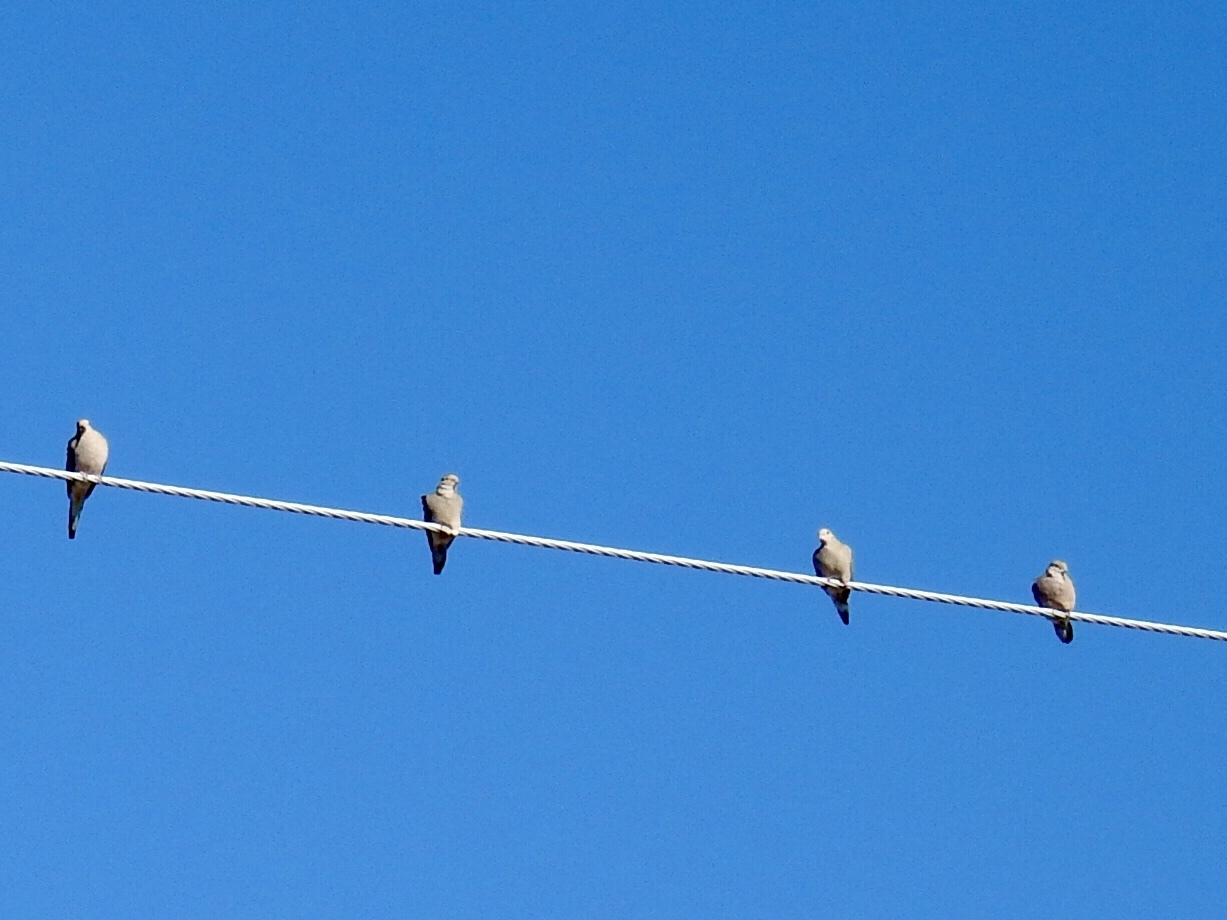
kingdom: Animalia
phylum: Chordata
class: Aves
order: Columbiformes
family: Columbidae
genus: Zenaida
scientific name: Zenaida macroura
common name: Mourning dove
